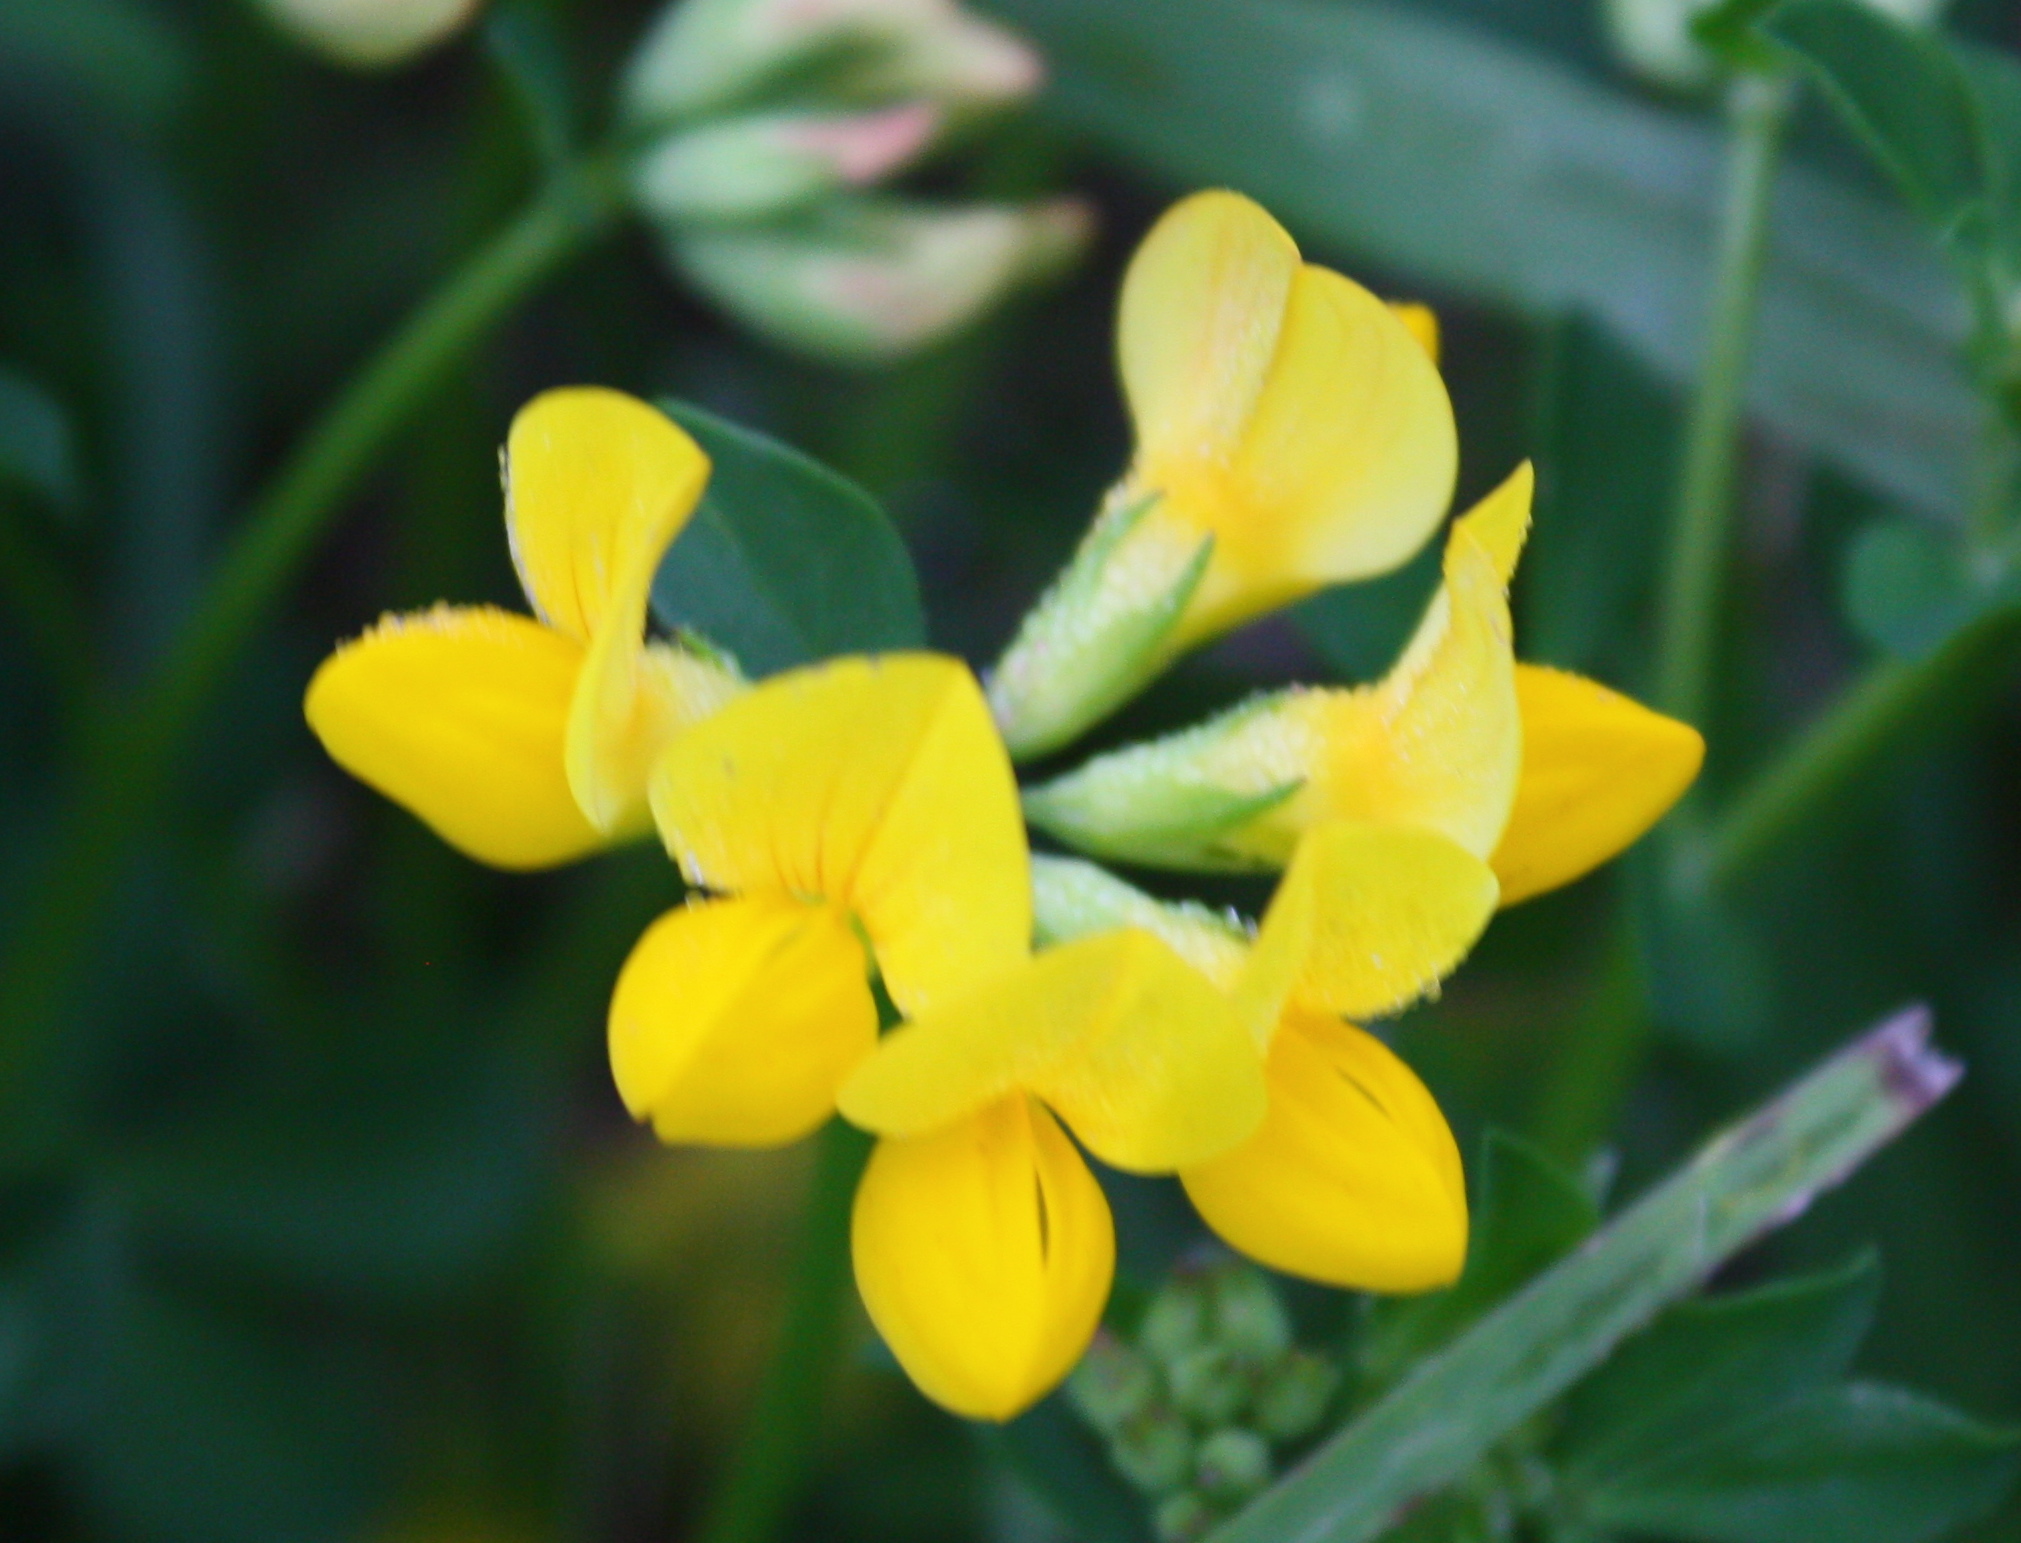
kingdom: Plantae
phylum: Tracheophyta
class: Magnoliopsida
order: Fabales
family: Fabaceae
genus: Lotus
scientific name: Lotus corniculatus
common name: Common bird's-foot-trefoil
